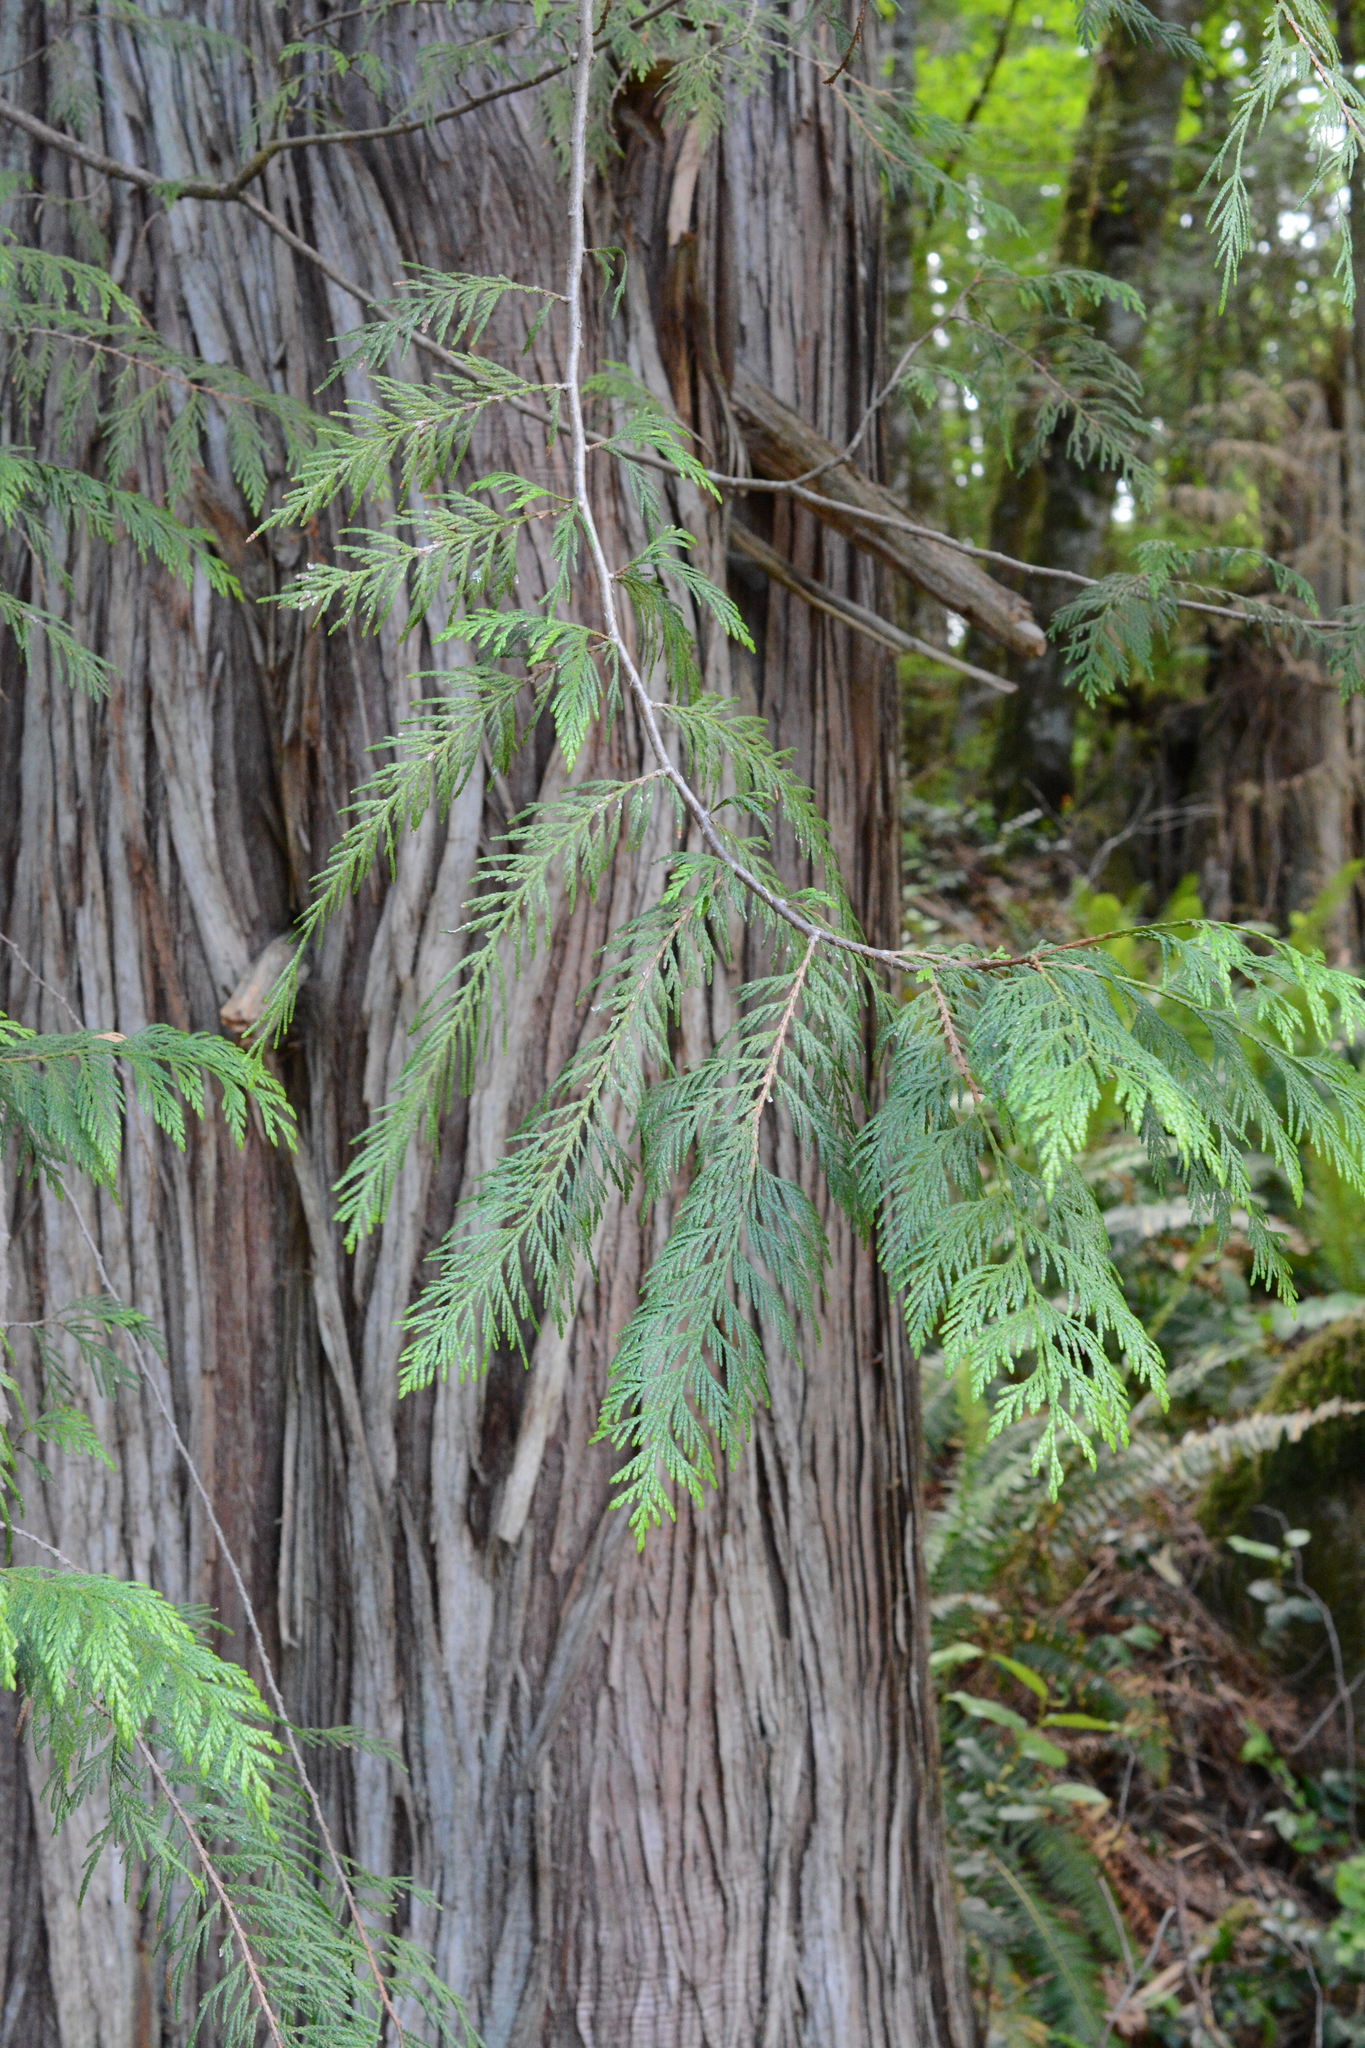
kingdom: Plantae
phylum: Tracheophyta
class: Pinopsida
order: Pinales
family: Cupressaceae
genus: Thuja
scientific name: Thuja plicata
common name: Western red-cedar
